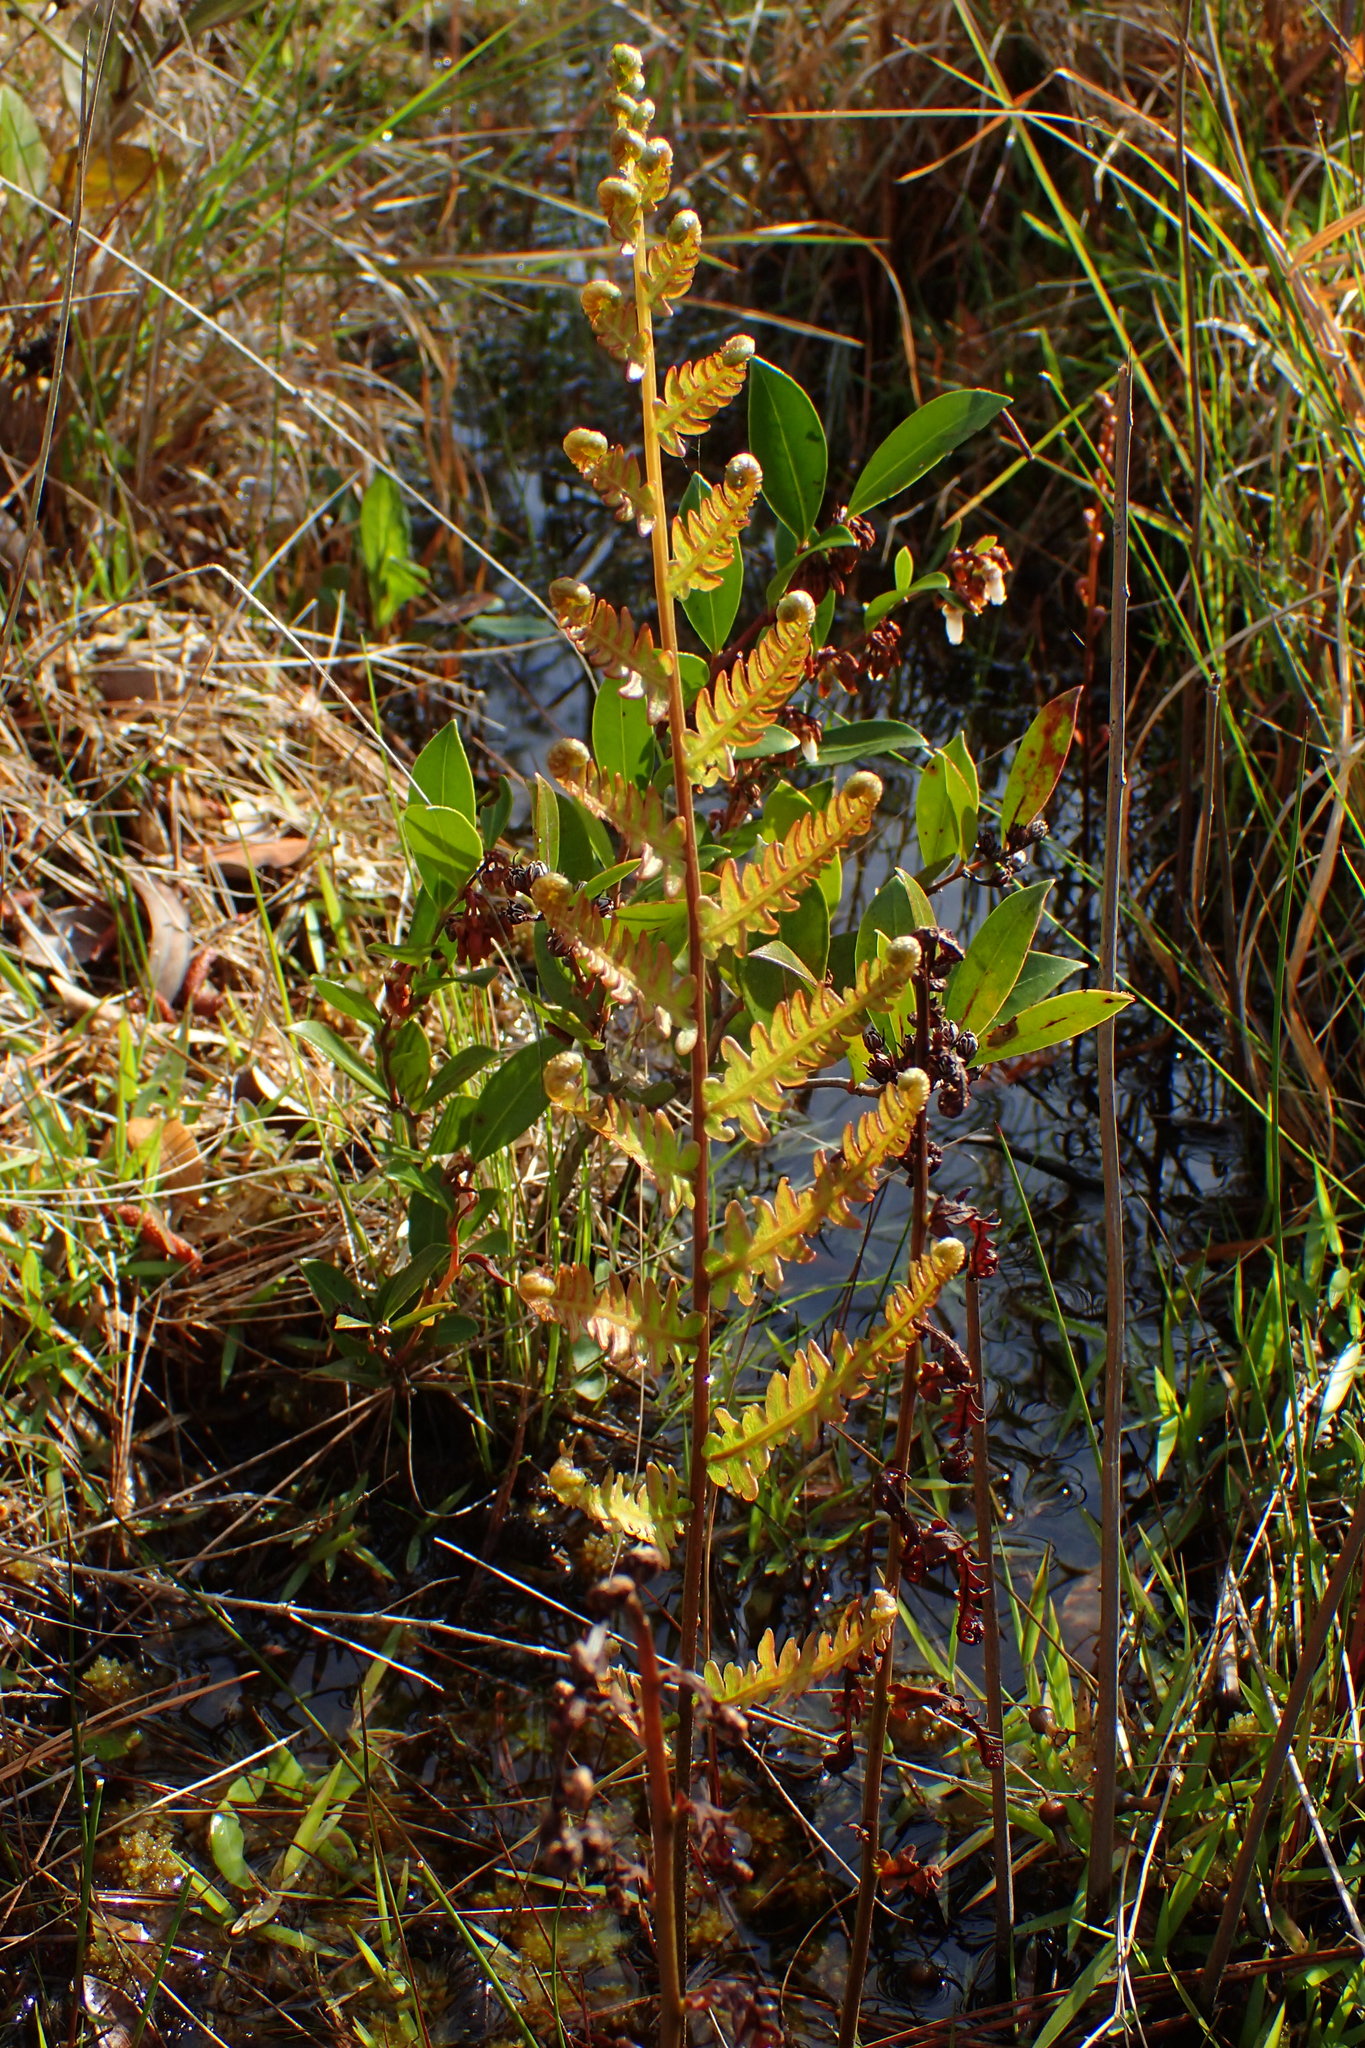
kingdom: Plantae
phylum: Tracheophyta
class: Polypodiopsida
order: Polypodiales
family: Blechnaceae
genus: Anchistea
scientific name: Anchistea virginica
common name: Virginia chain fern
